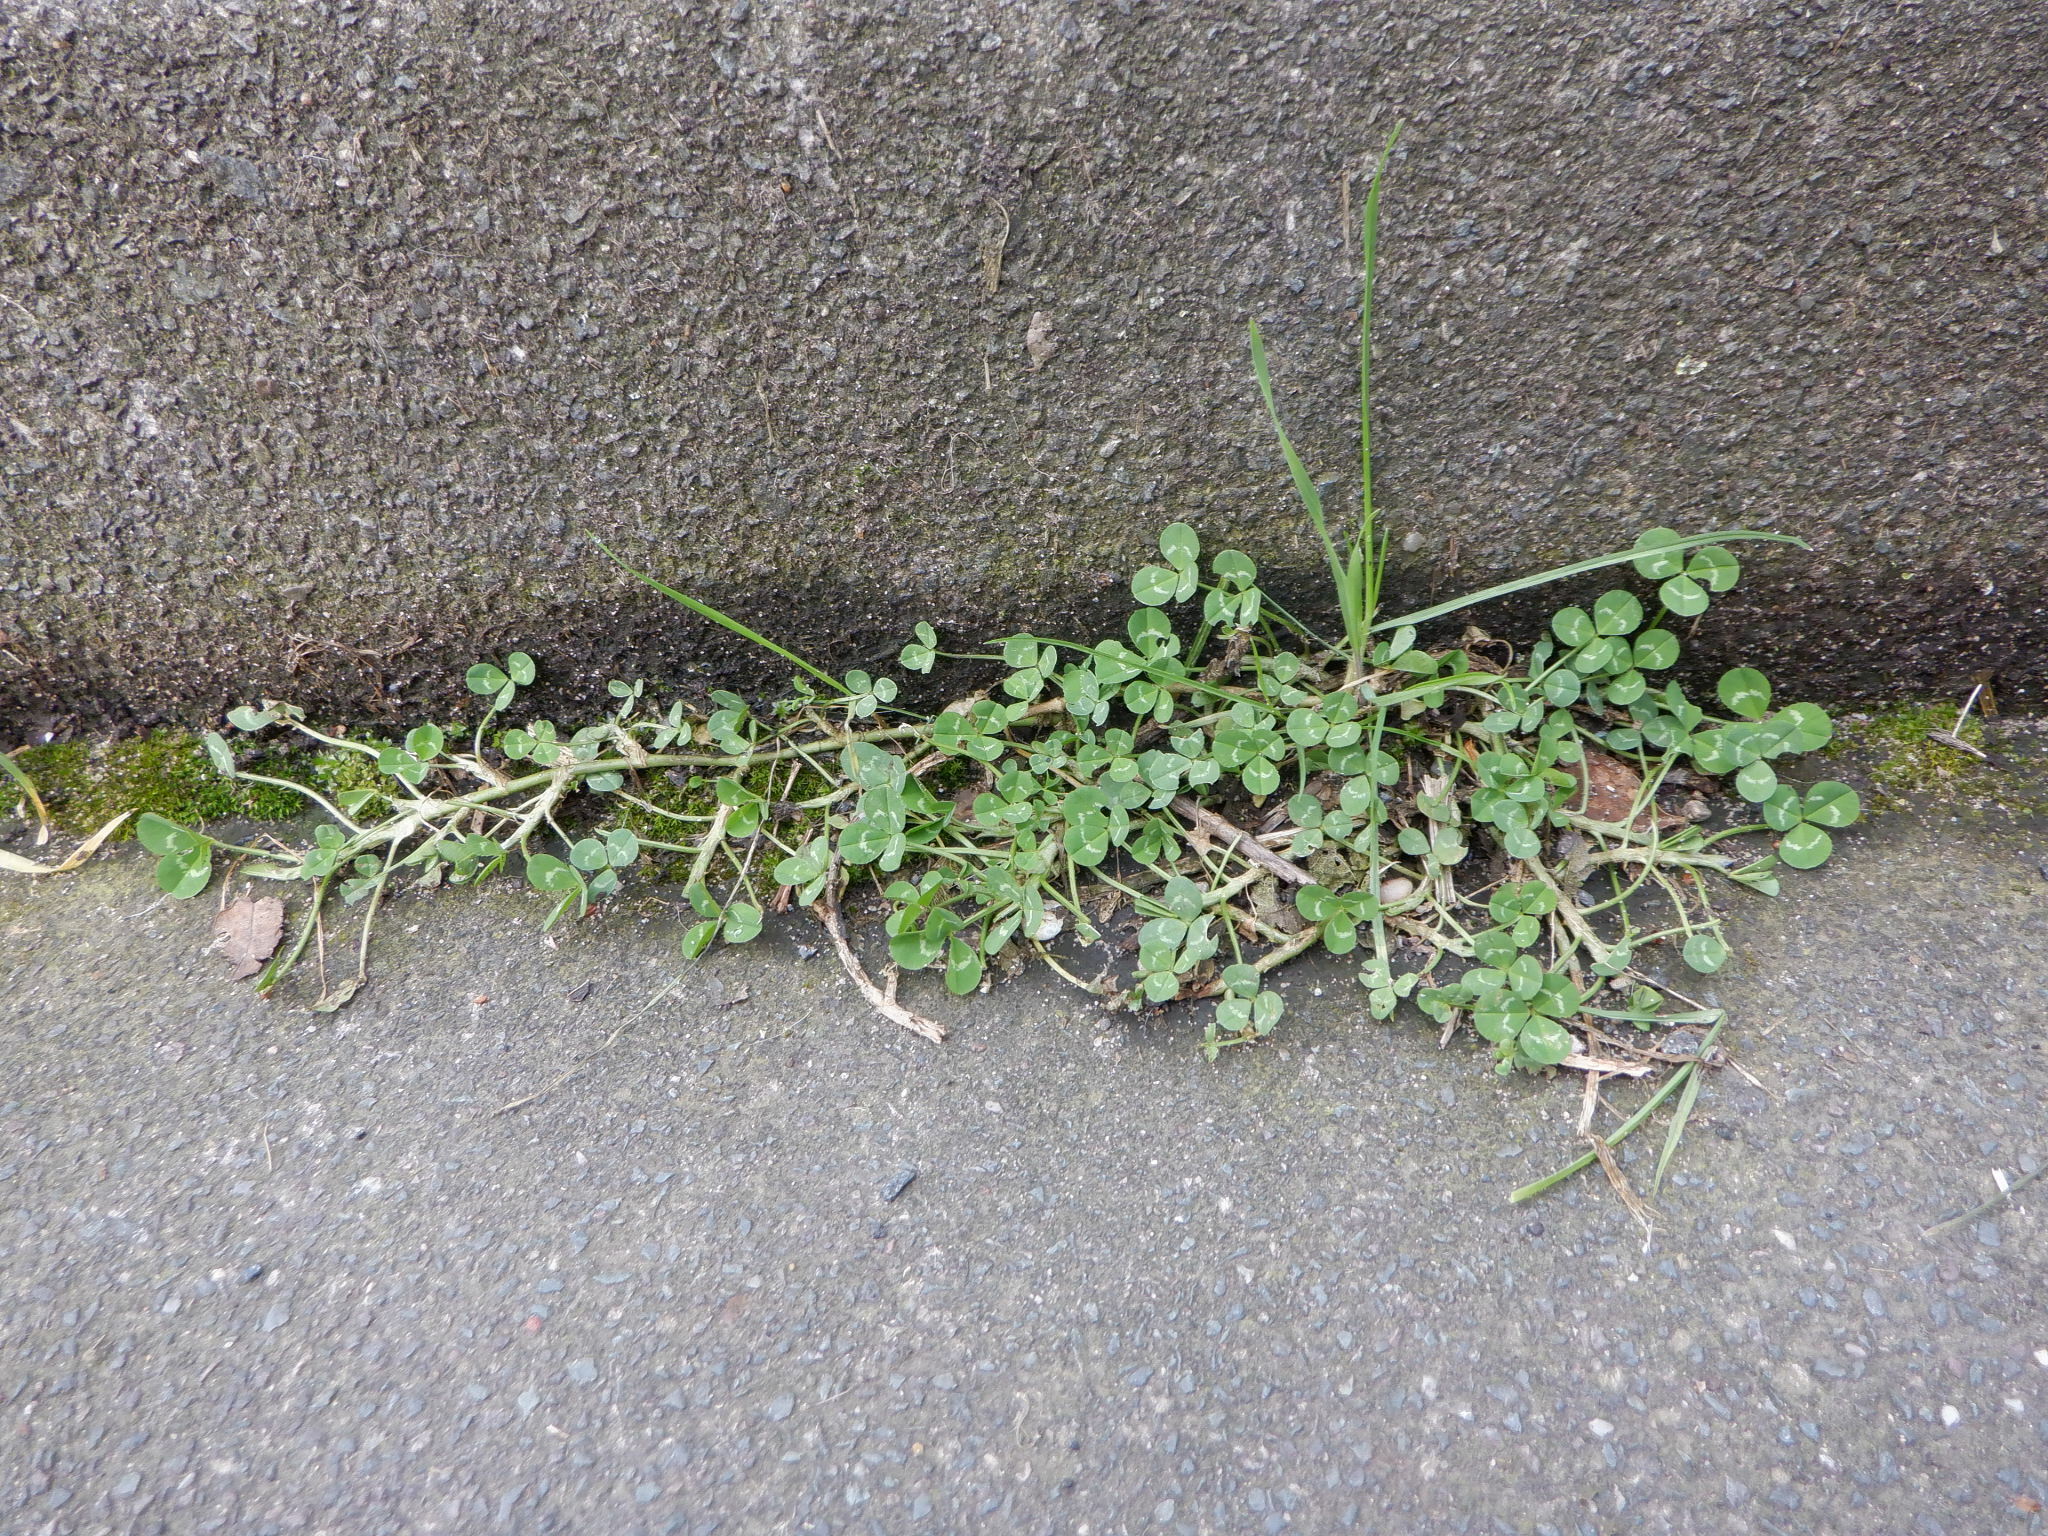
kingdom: Plantae
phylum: Tracheophyta
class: Magnoliopsida
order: Fabales
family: Fabaceae
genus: Trifolium
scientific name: Trifolium repens
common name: White clover
